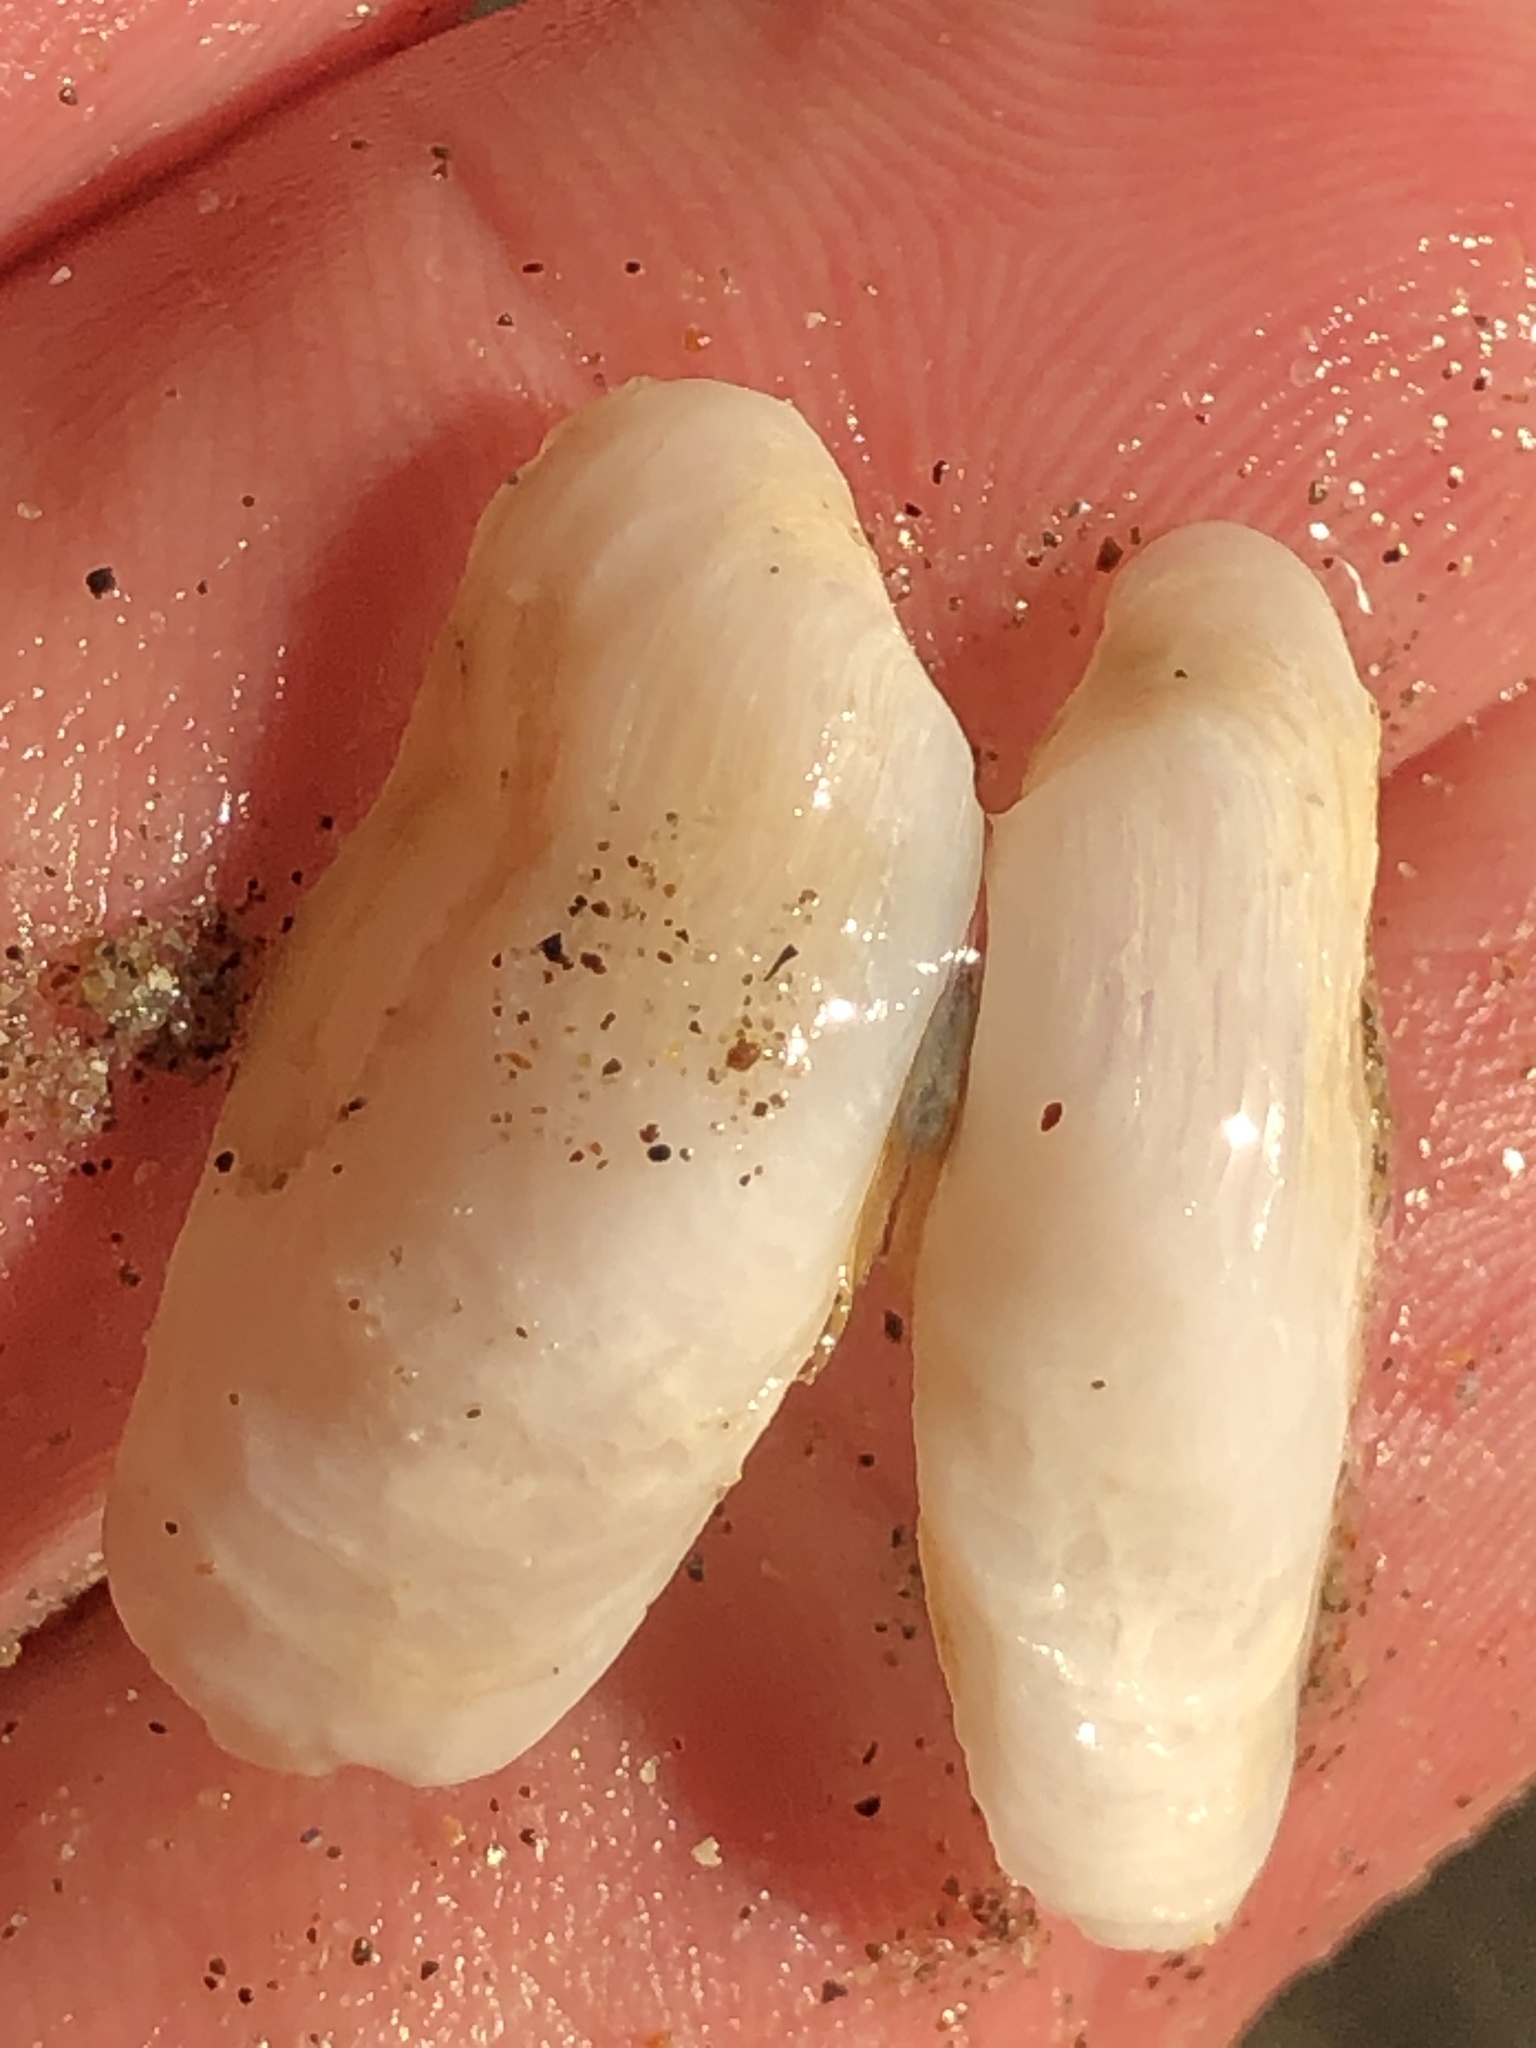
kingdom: Animalia
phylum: Mollusca
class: Bivalvia
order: Adapedonta
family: Hiatellidae
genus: Hiatella
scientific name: Hiatella arctica
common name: Arctic hiatella
